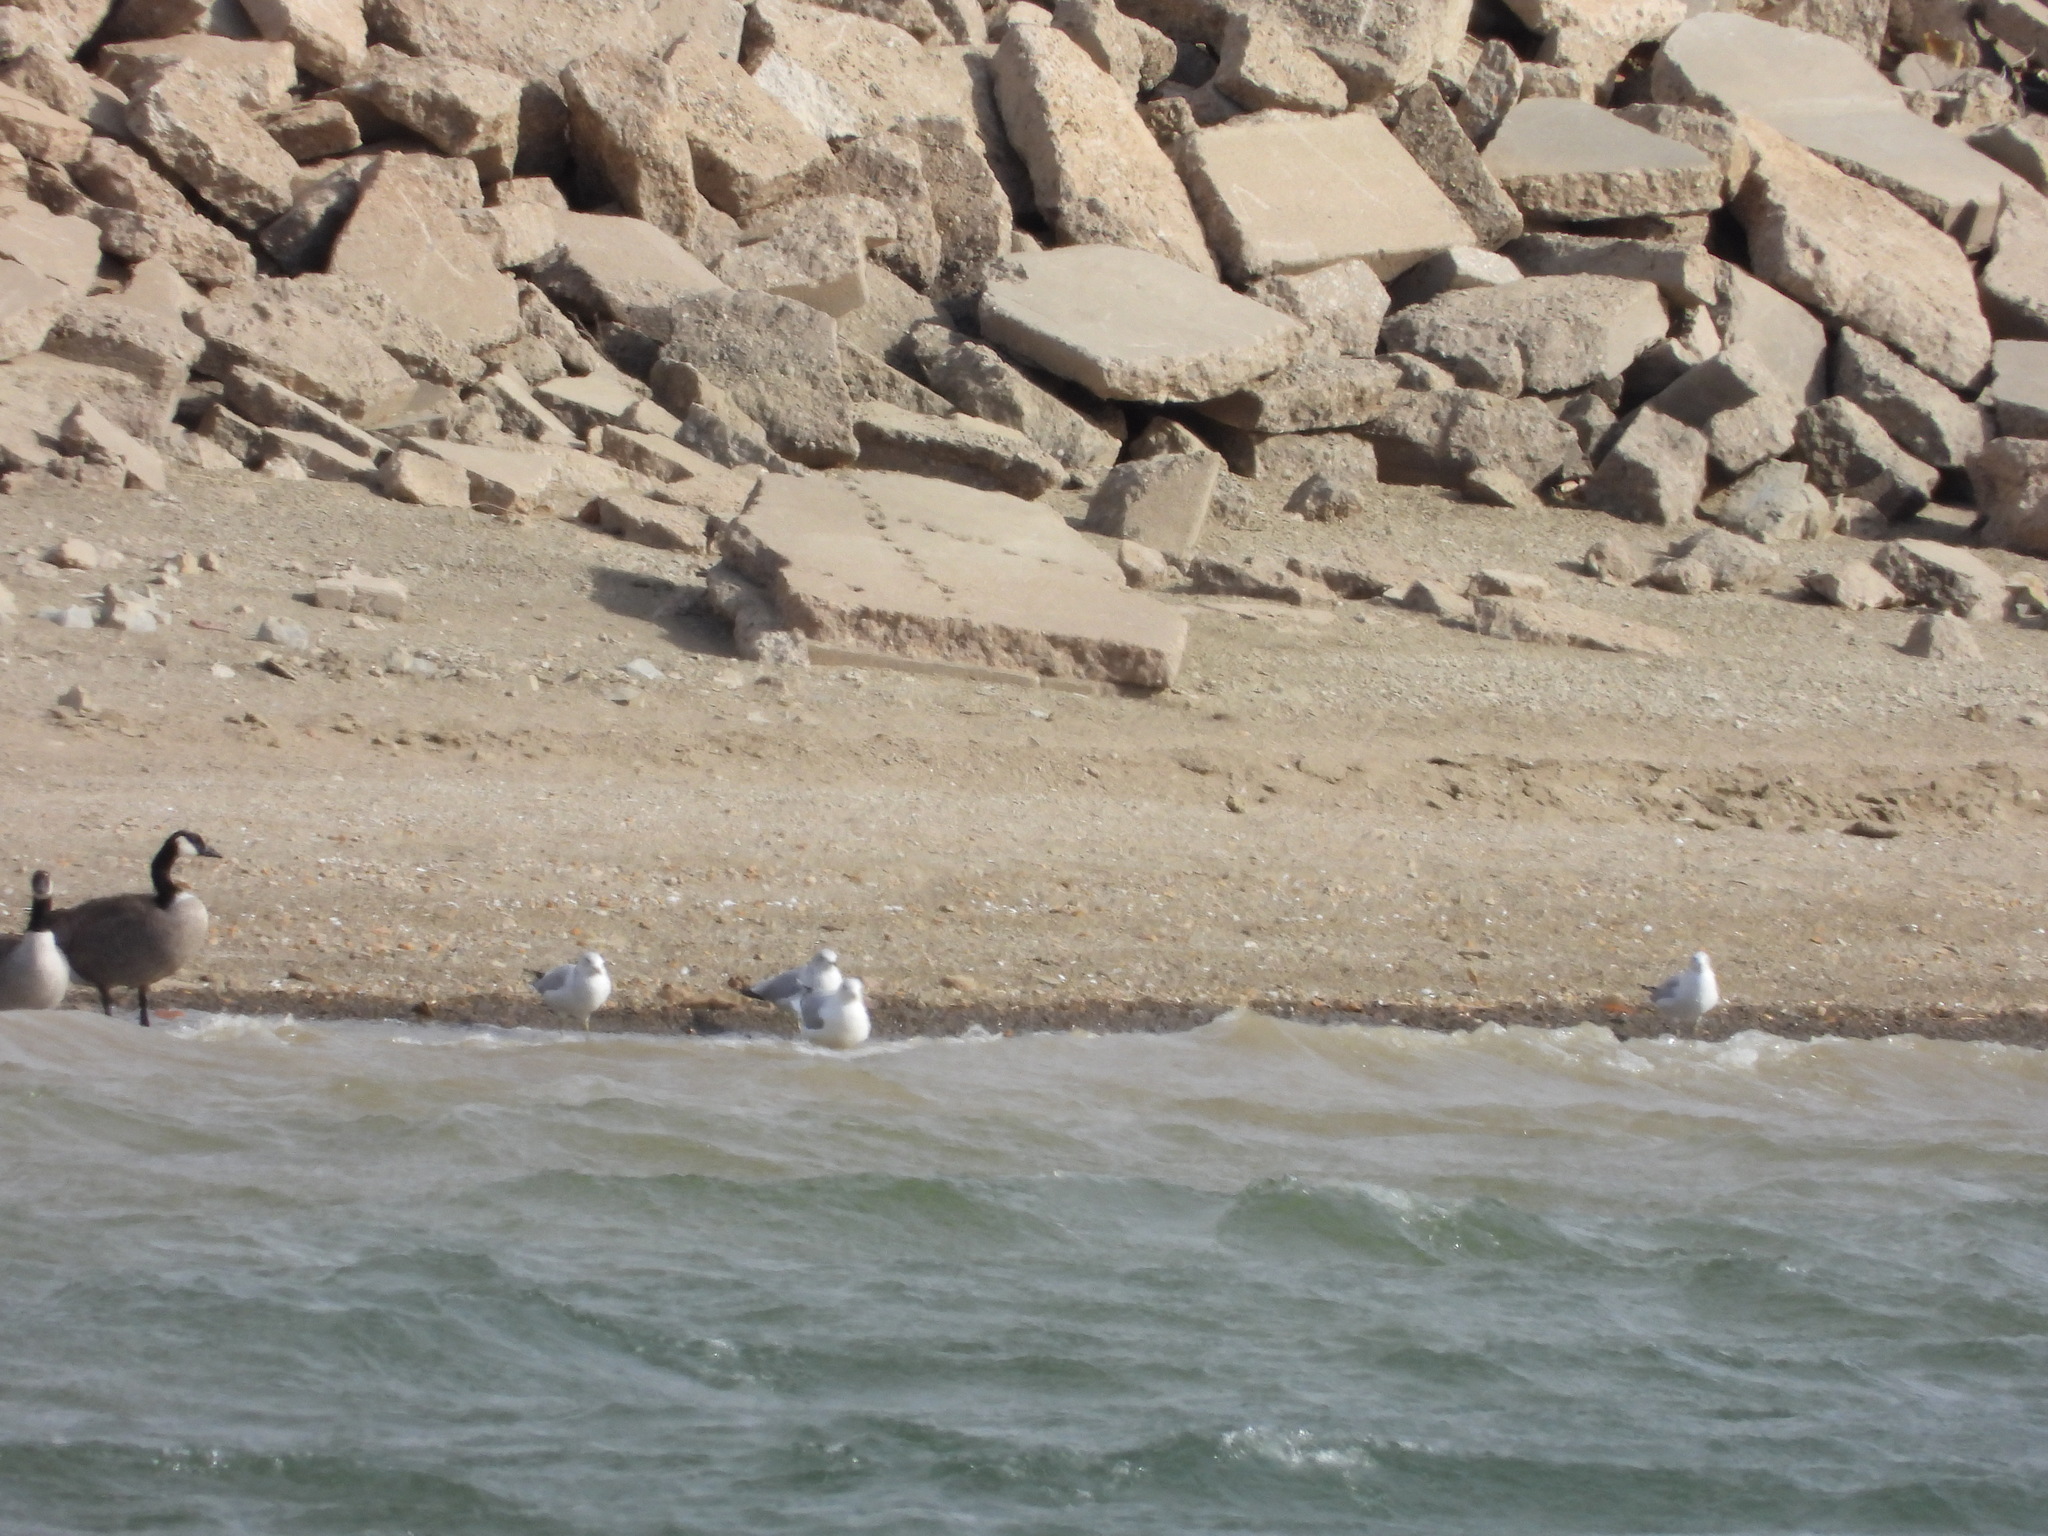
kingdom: Animalia
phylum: Chordata
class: Aves
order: Charadriiformes
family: Laridae
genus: Larus
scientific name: Larus delawarensis
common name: Ring-billed gull
